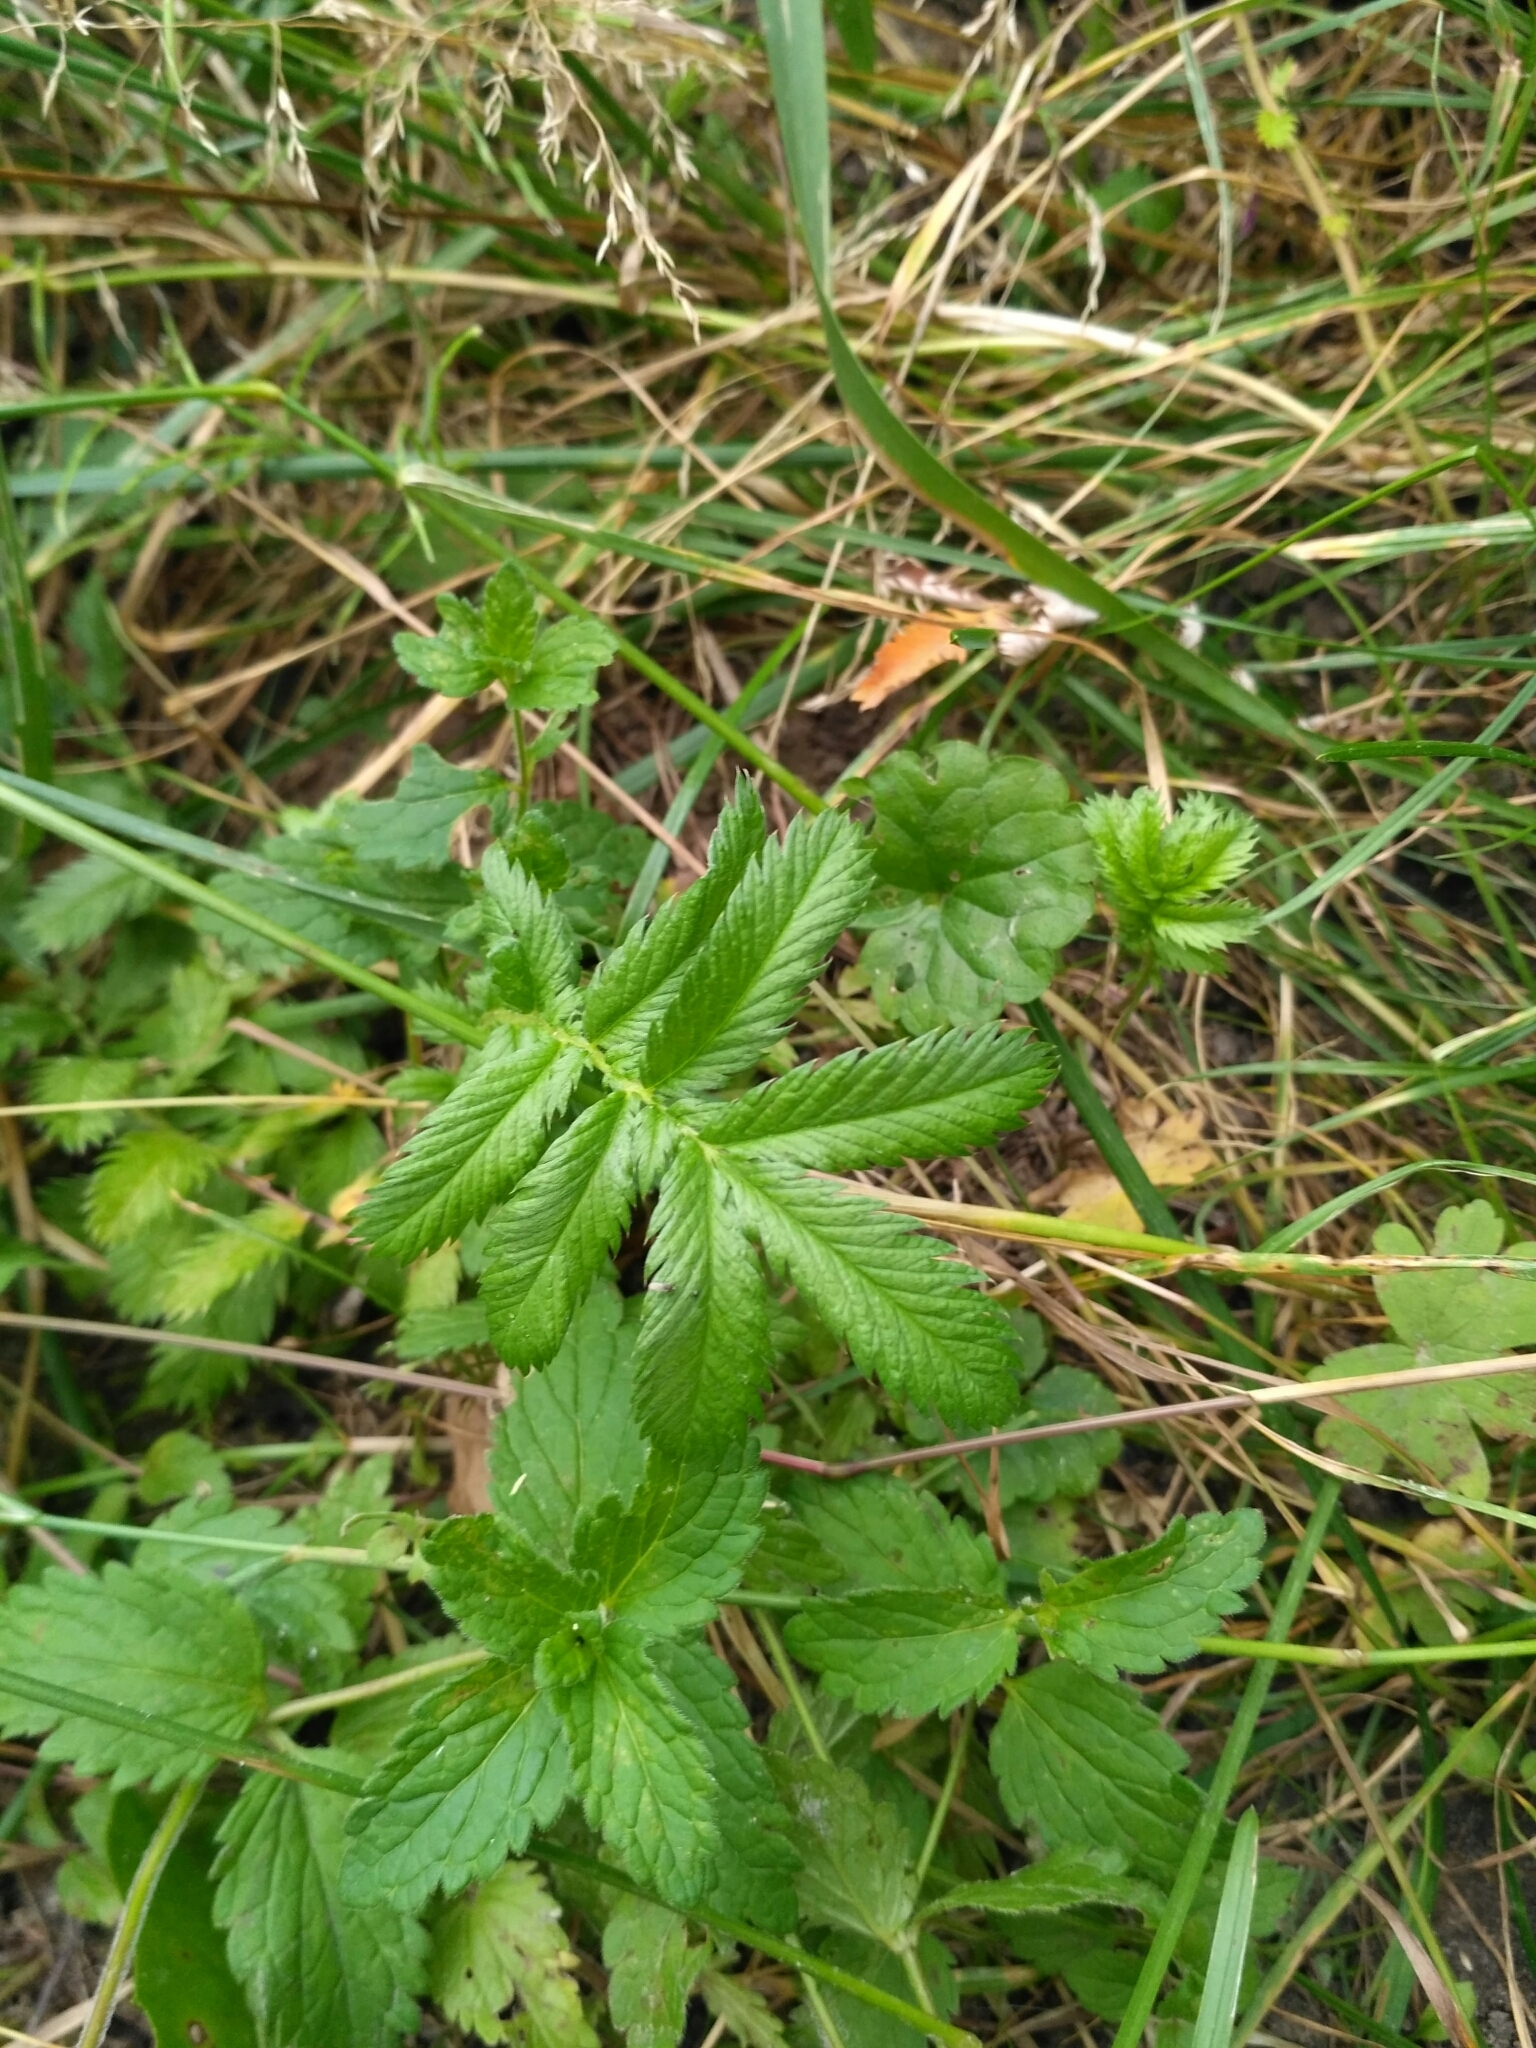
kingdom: Plantae
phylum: Tracheophyta
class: Magnoliopsida
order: Rosales
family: Rosaceae
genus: Argentina
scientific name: Argentina anserina
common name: Common silverweed
